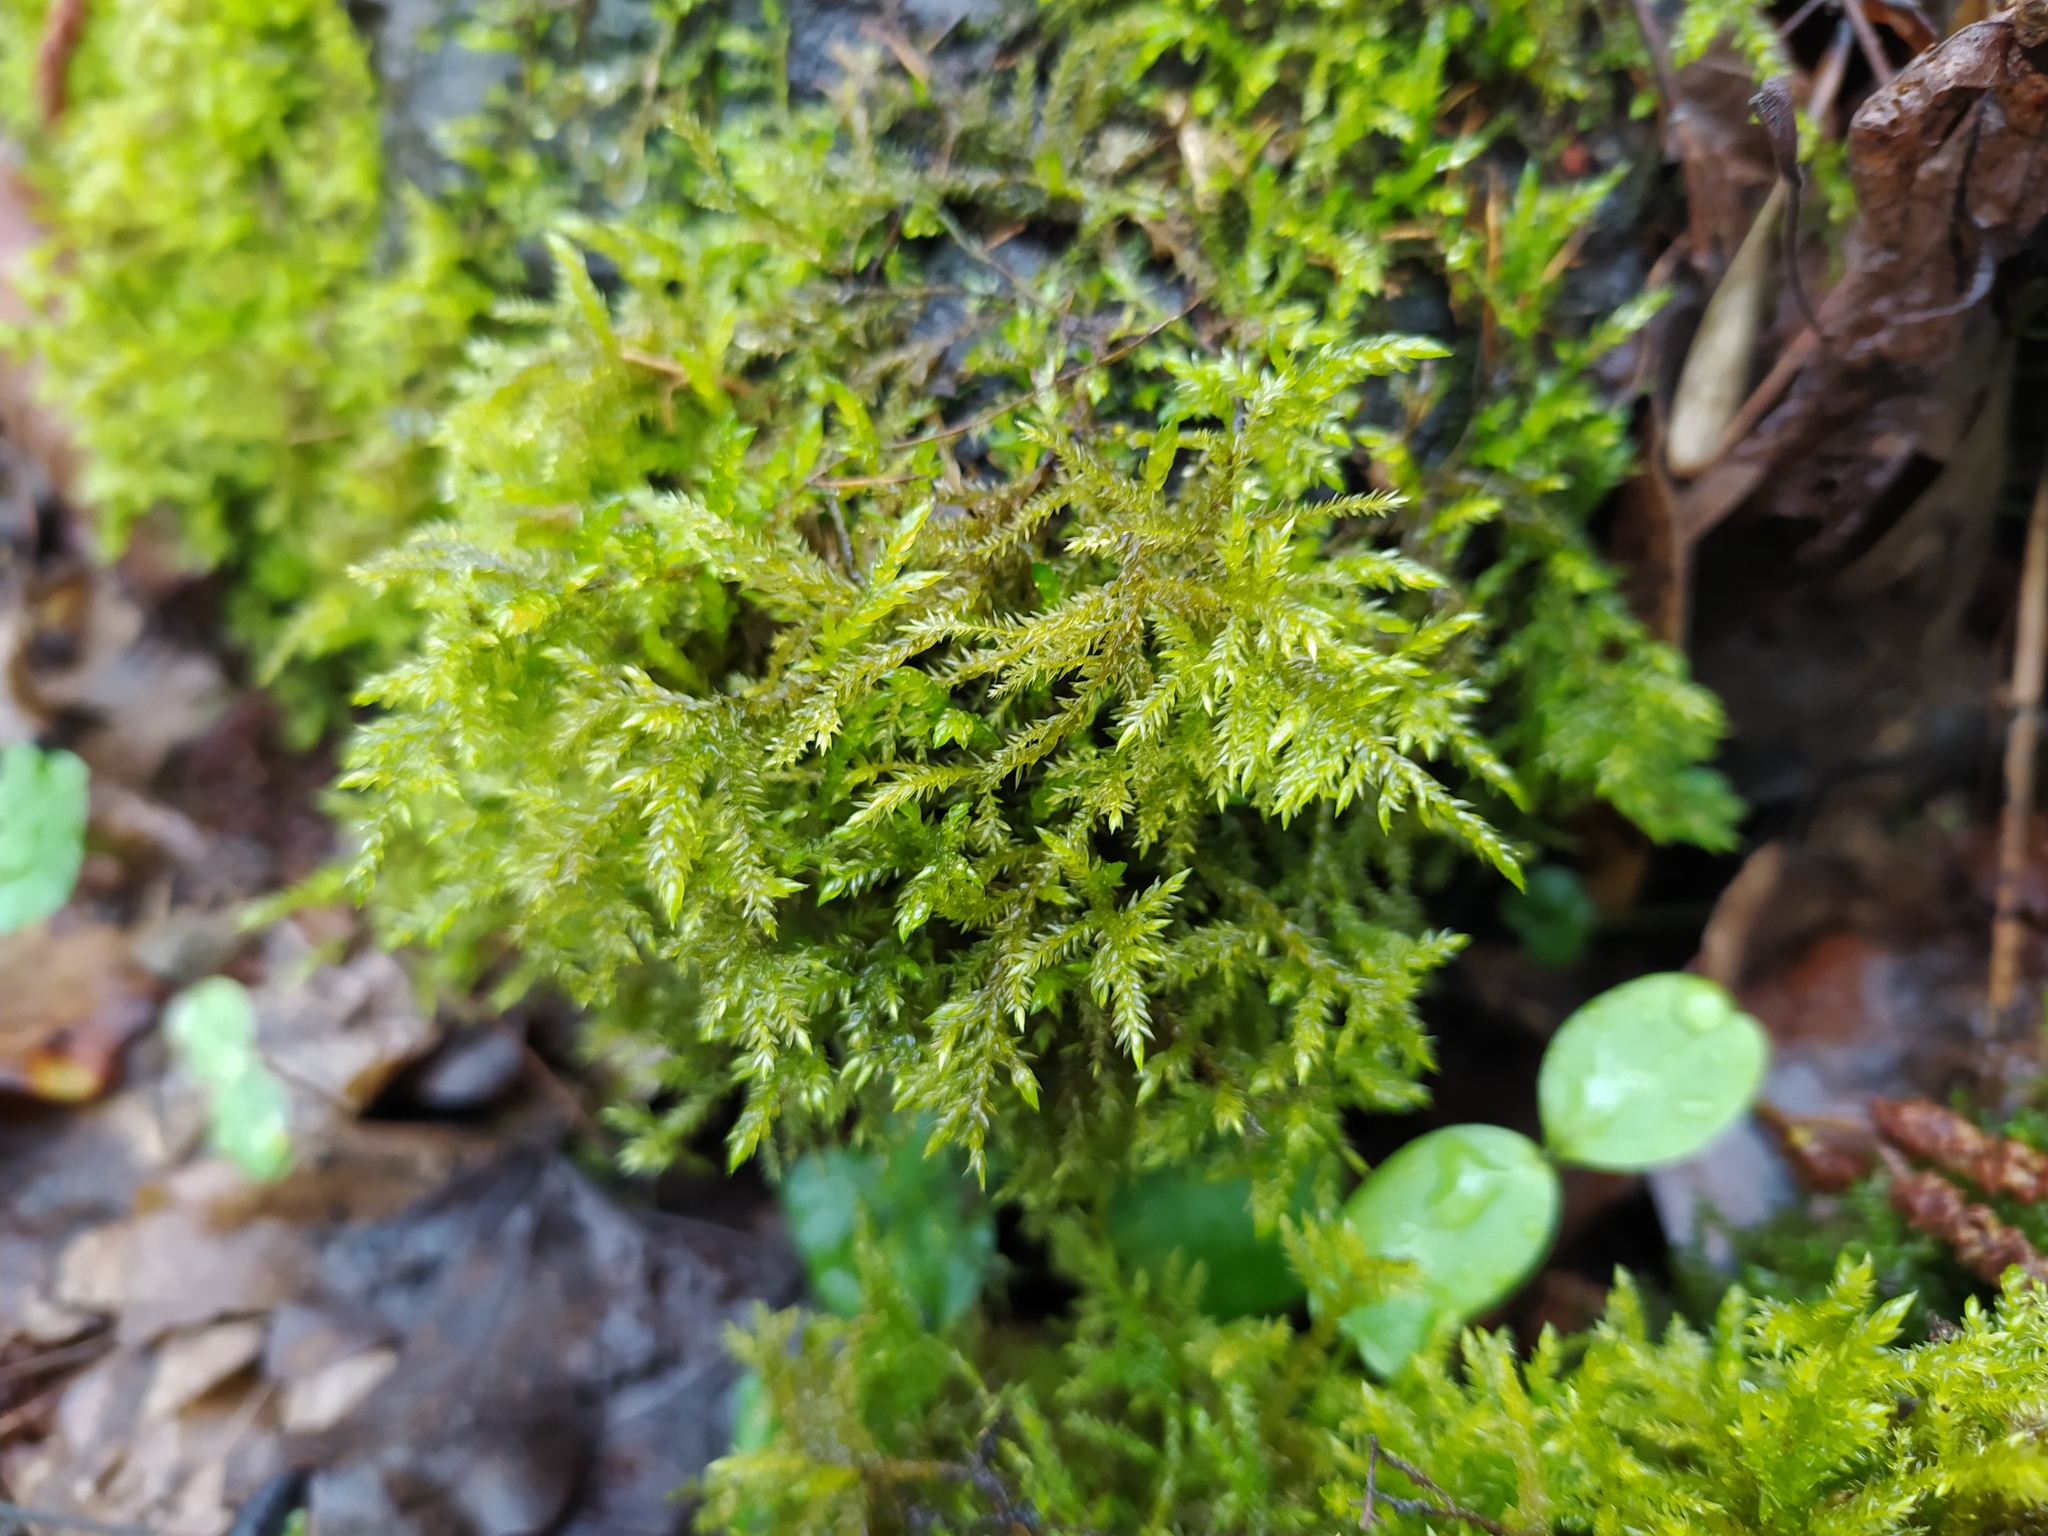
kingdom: Plantae
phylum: Bryophyta
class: Bryopsida
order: Hypnales
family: Neckeraceae
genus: Thamnobryum
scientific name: Thamnobryum alopecurum
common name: Fox-tail feather-moss
